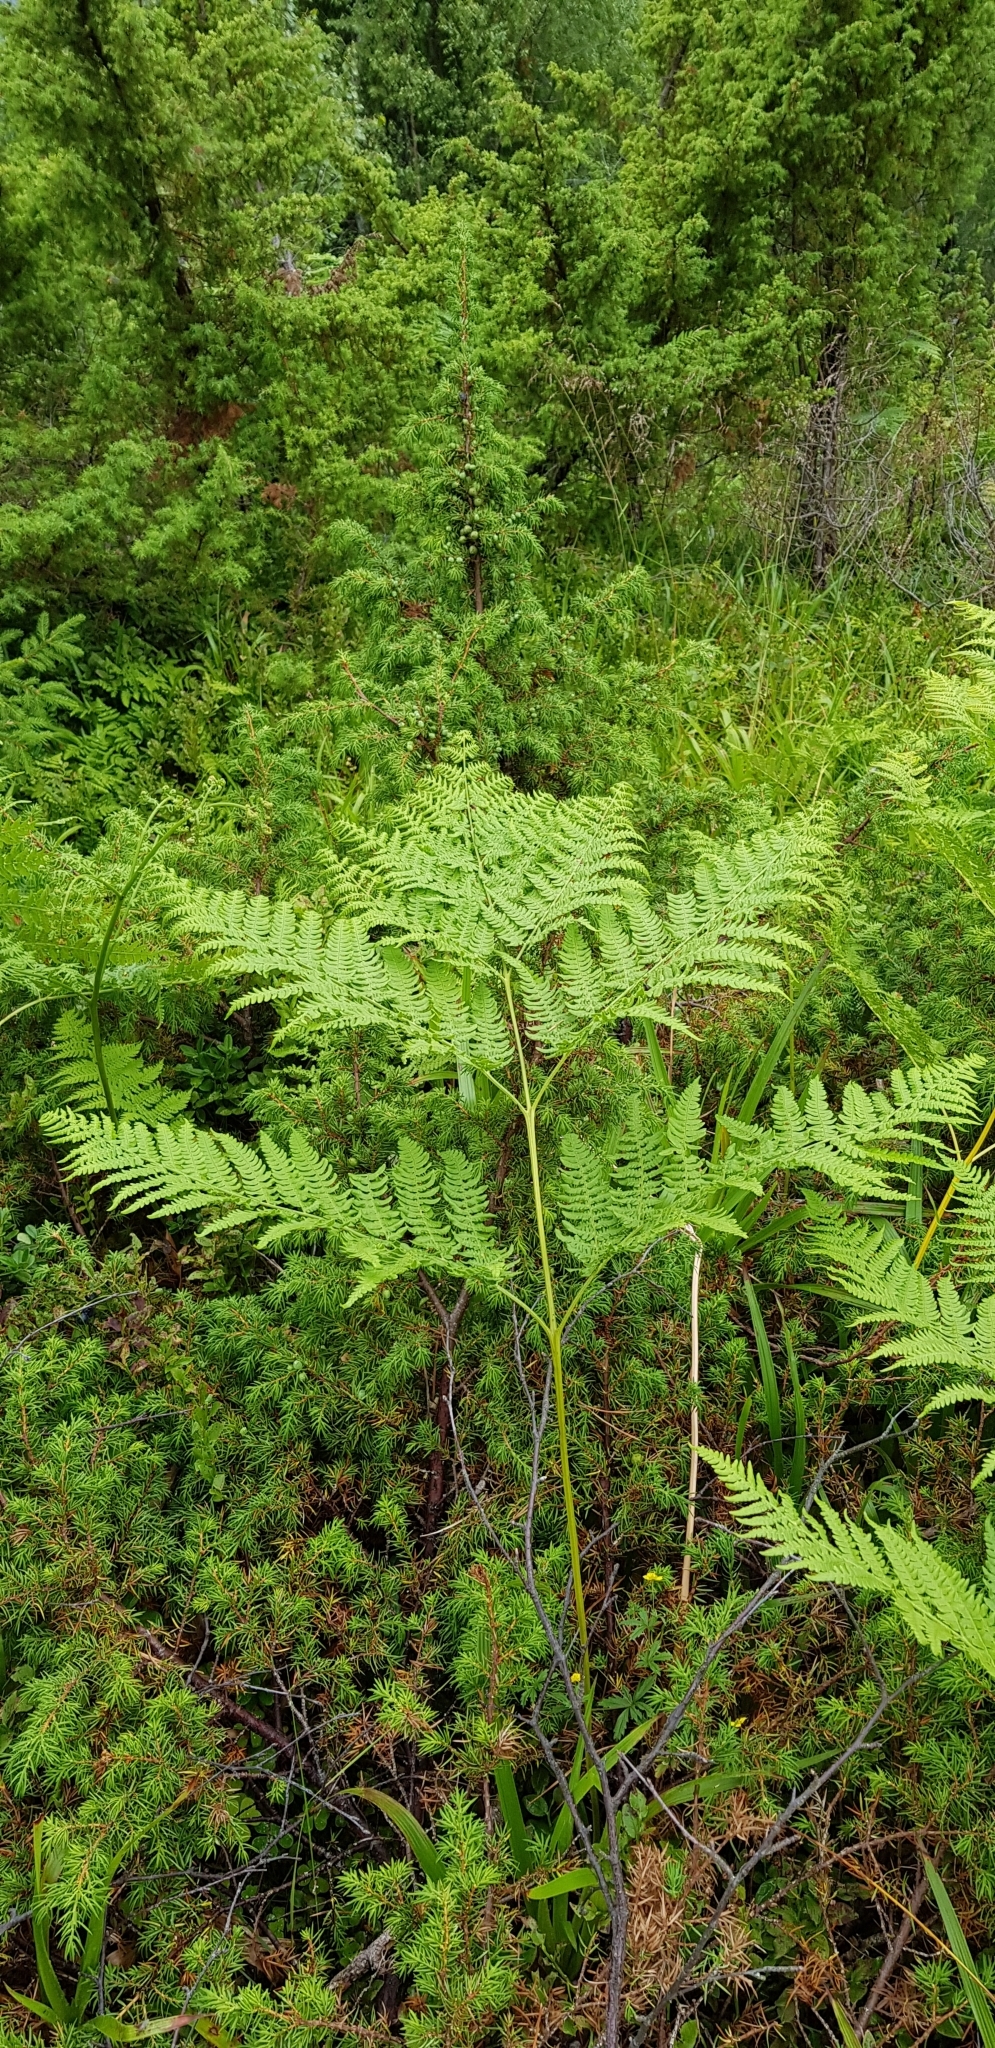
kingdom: Plantae
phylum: Tracheophyta
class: Polypodiopsida
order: Polypodiales
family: Dennstaedtiaceae
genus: Pteridium
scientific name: Pteridium aquilinum
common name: Bracken
